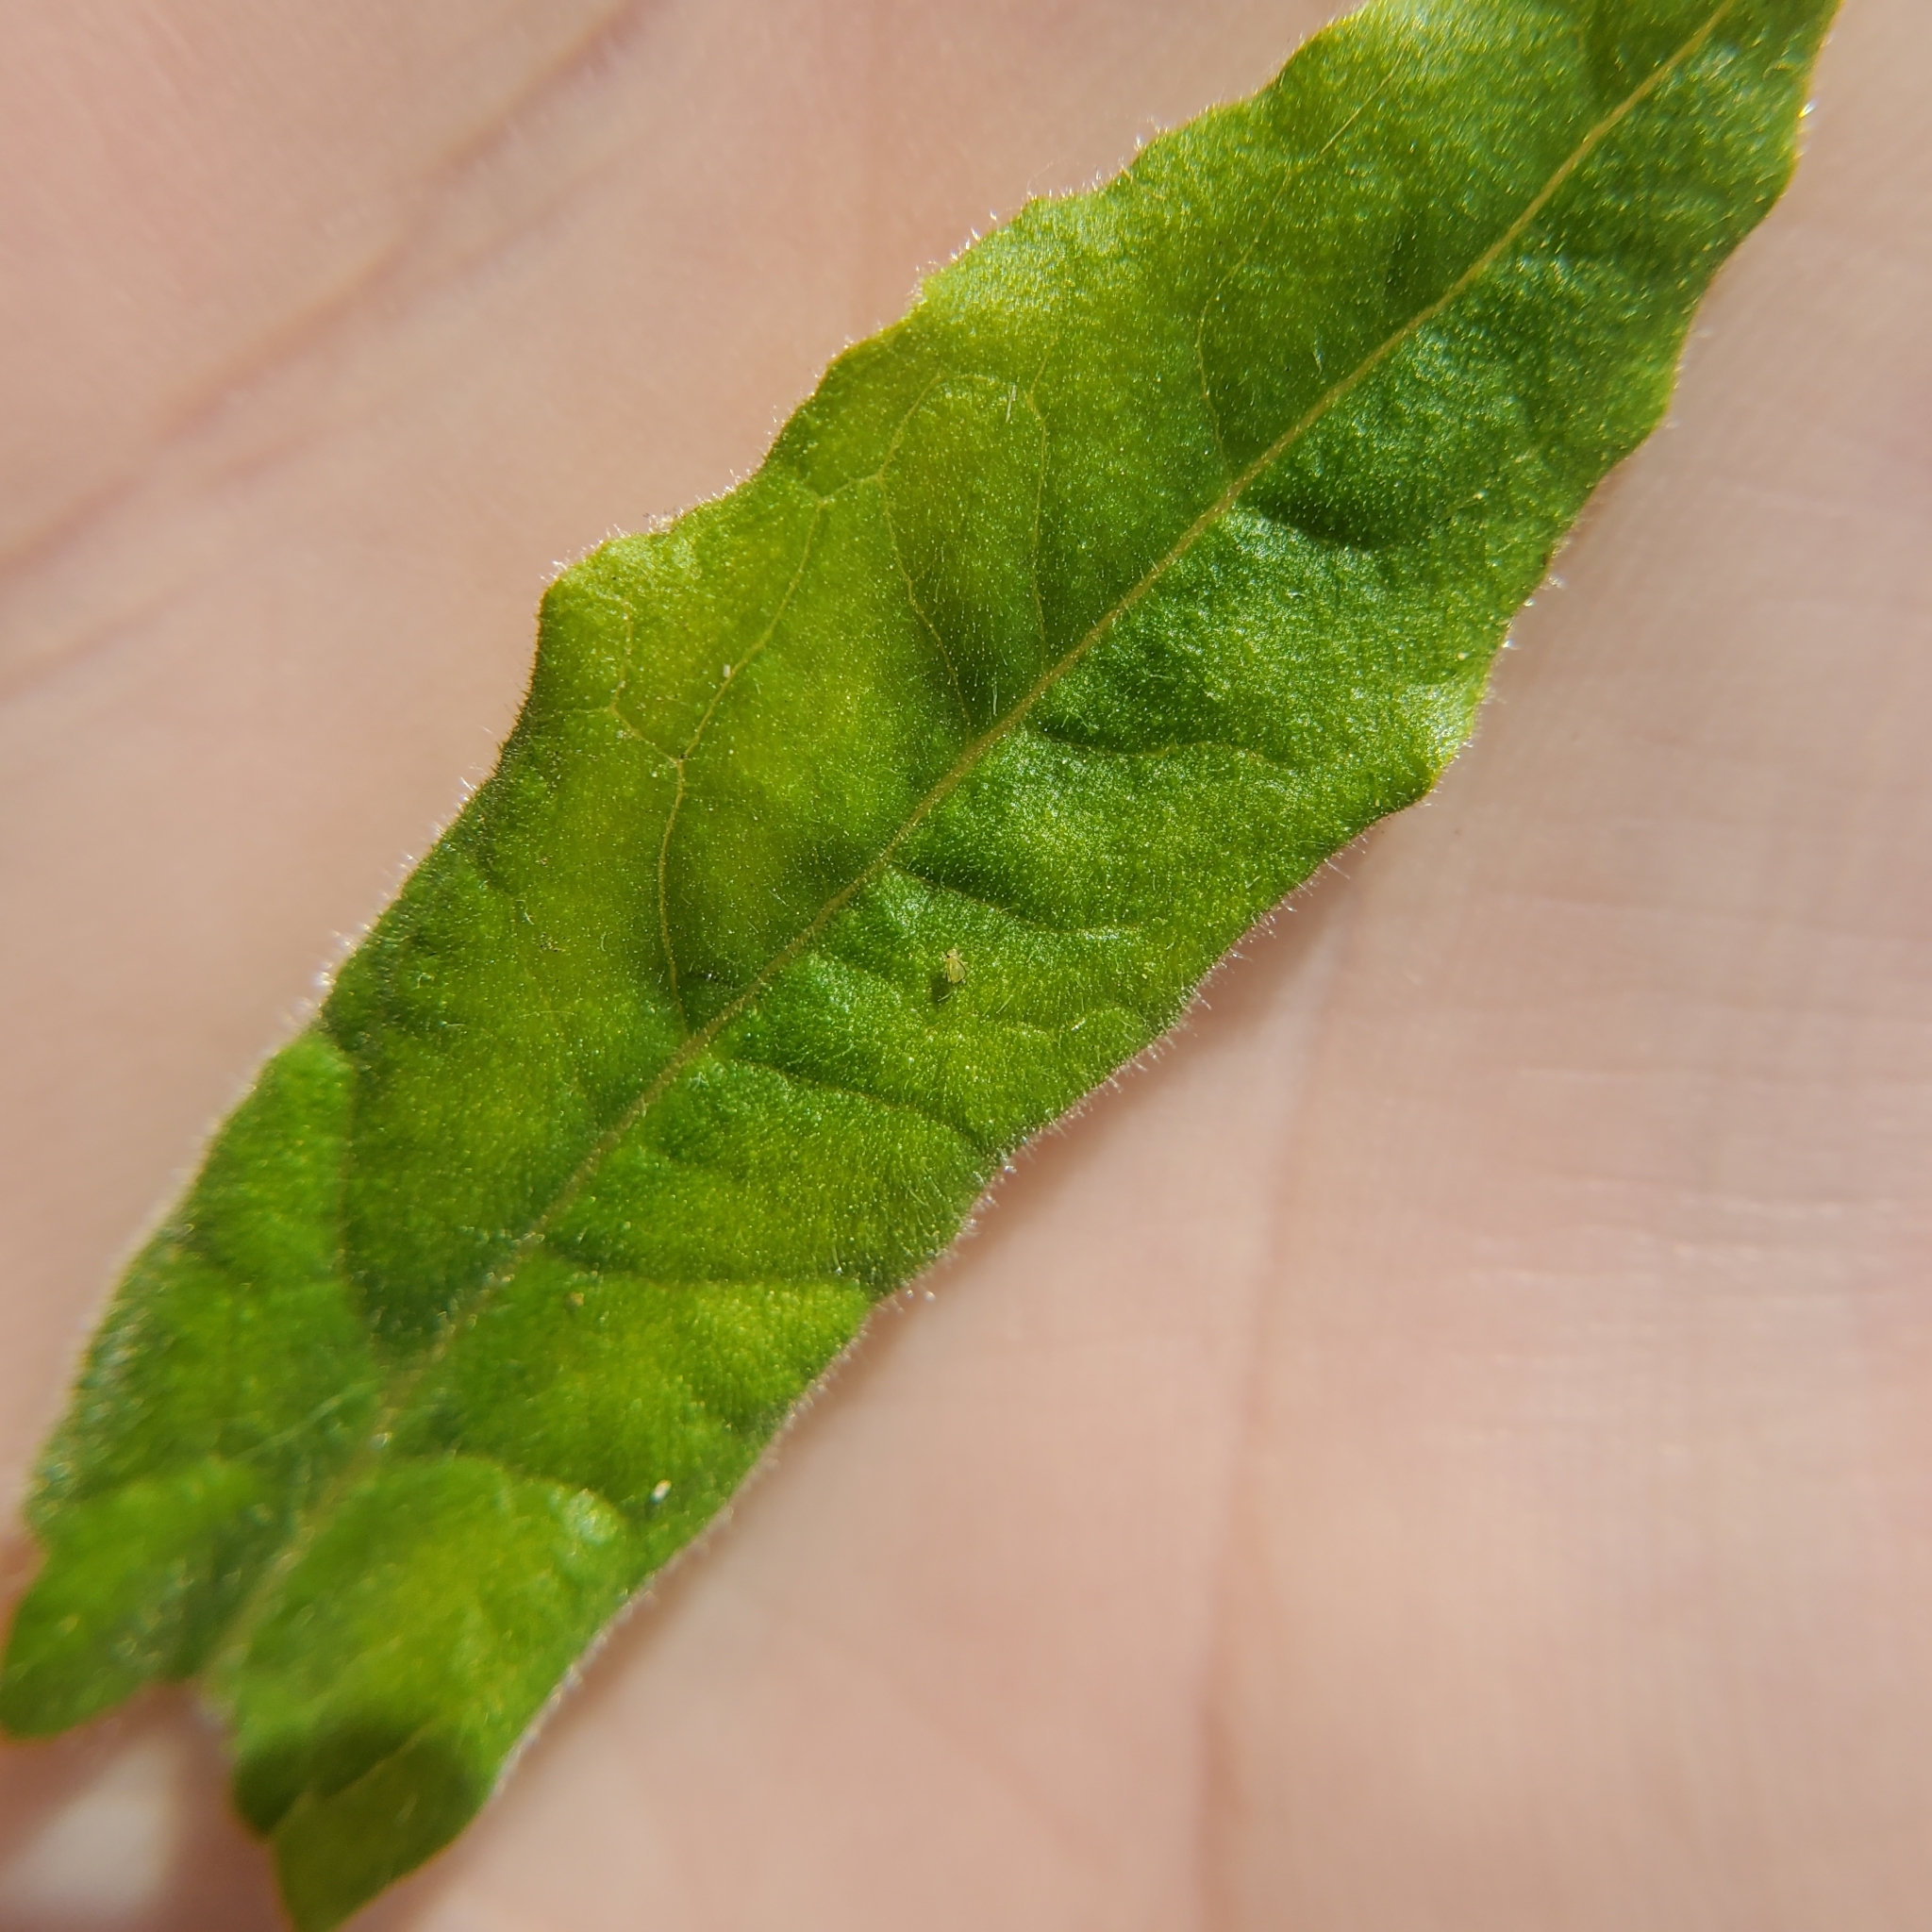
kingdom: Plantae
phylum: Tracheophyta
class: Magnoliopsida
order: Asterales
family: Asteraceae
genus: Pseudognaphalium
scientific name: Pseudognaphalium californicum
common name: California rabbit-tobacco
